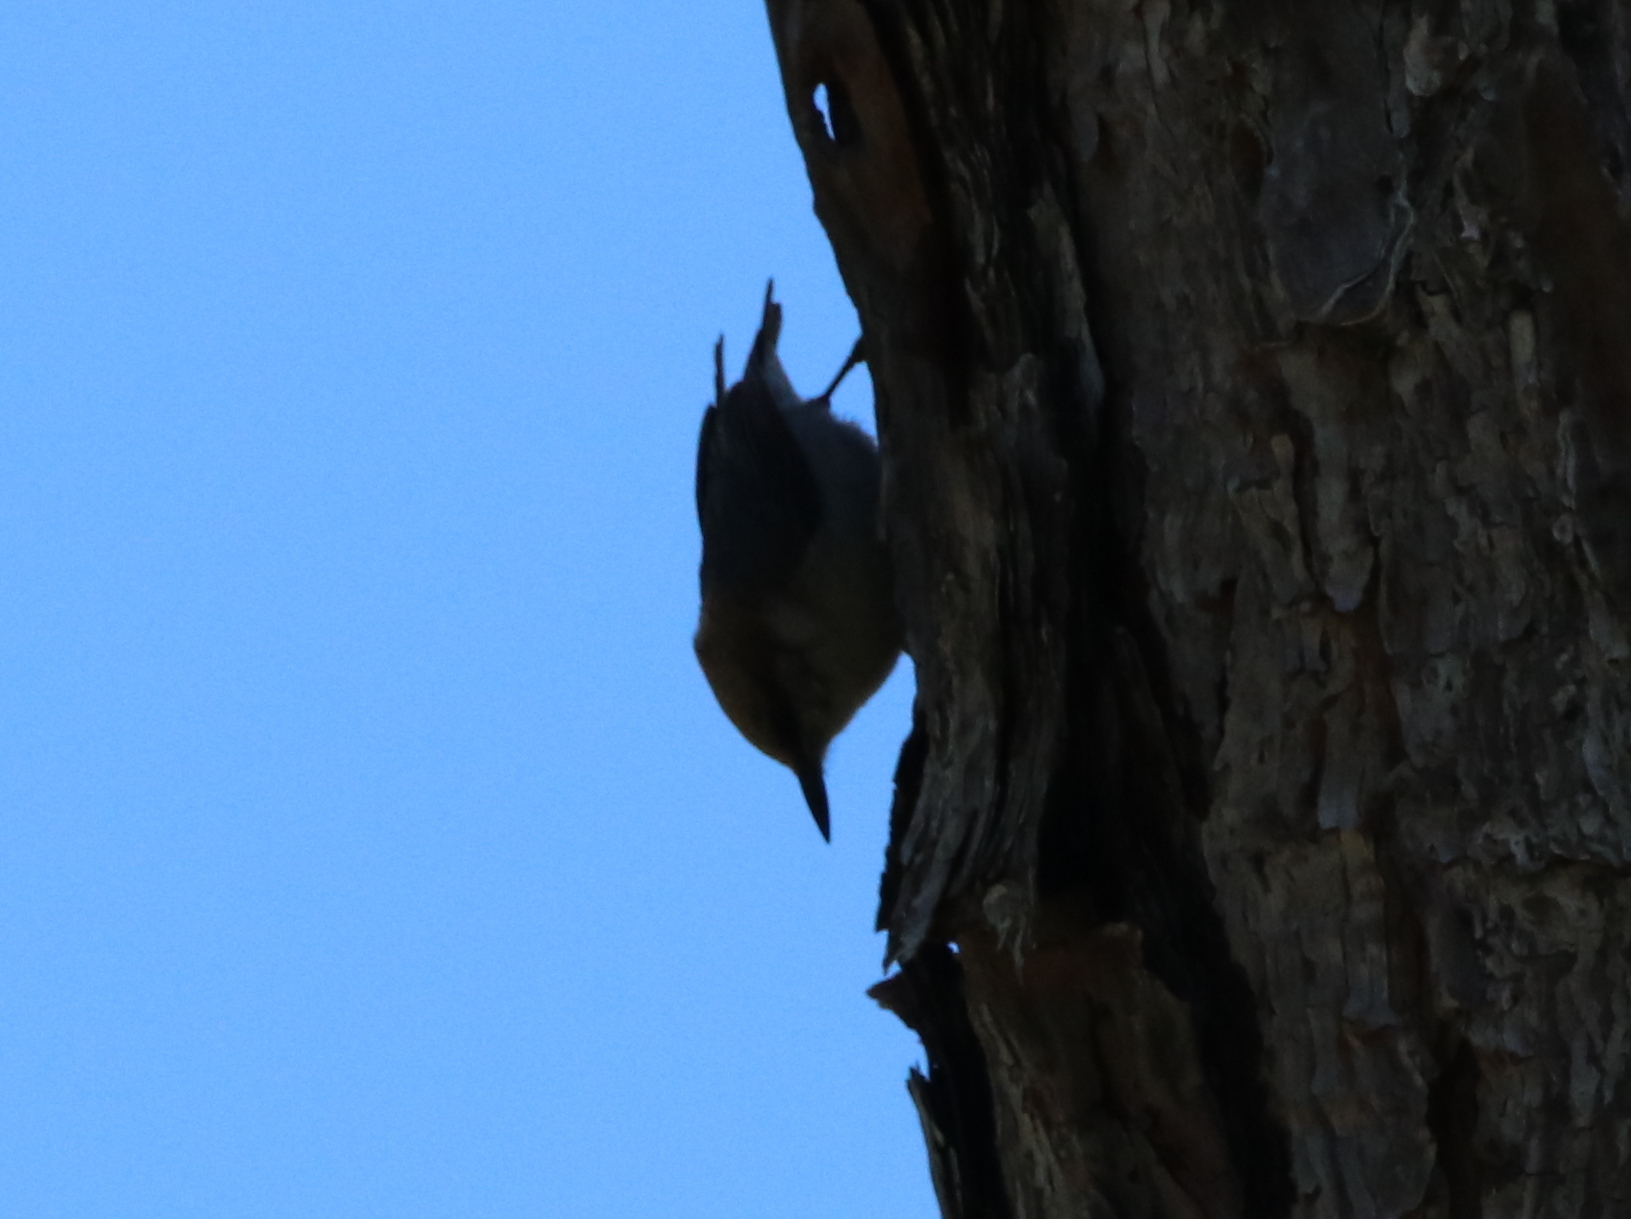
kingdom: Animalia
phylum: Chordata
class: Aves
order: Passeriformes
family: Sittidae
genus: Sitta
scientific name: Sitta pusilla
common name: Brown-headed nuthatch
